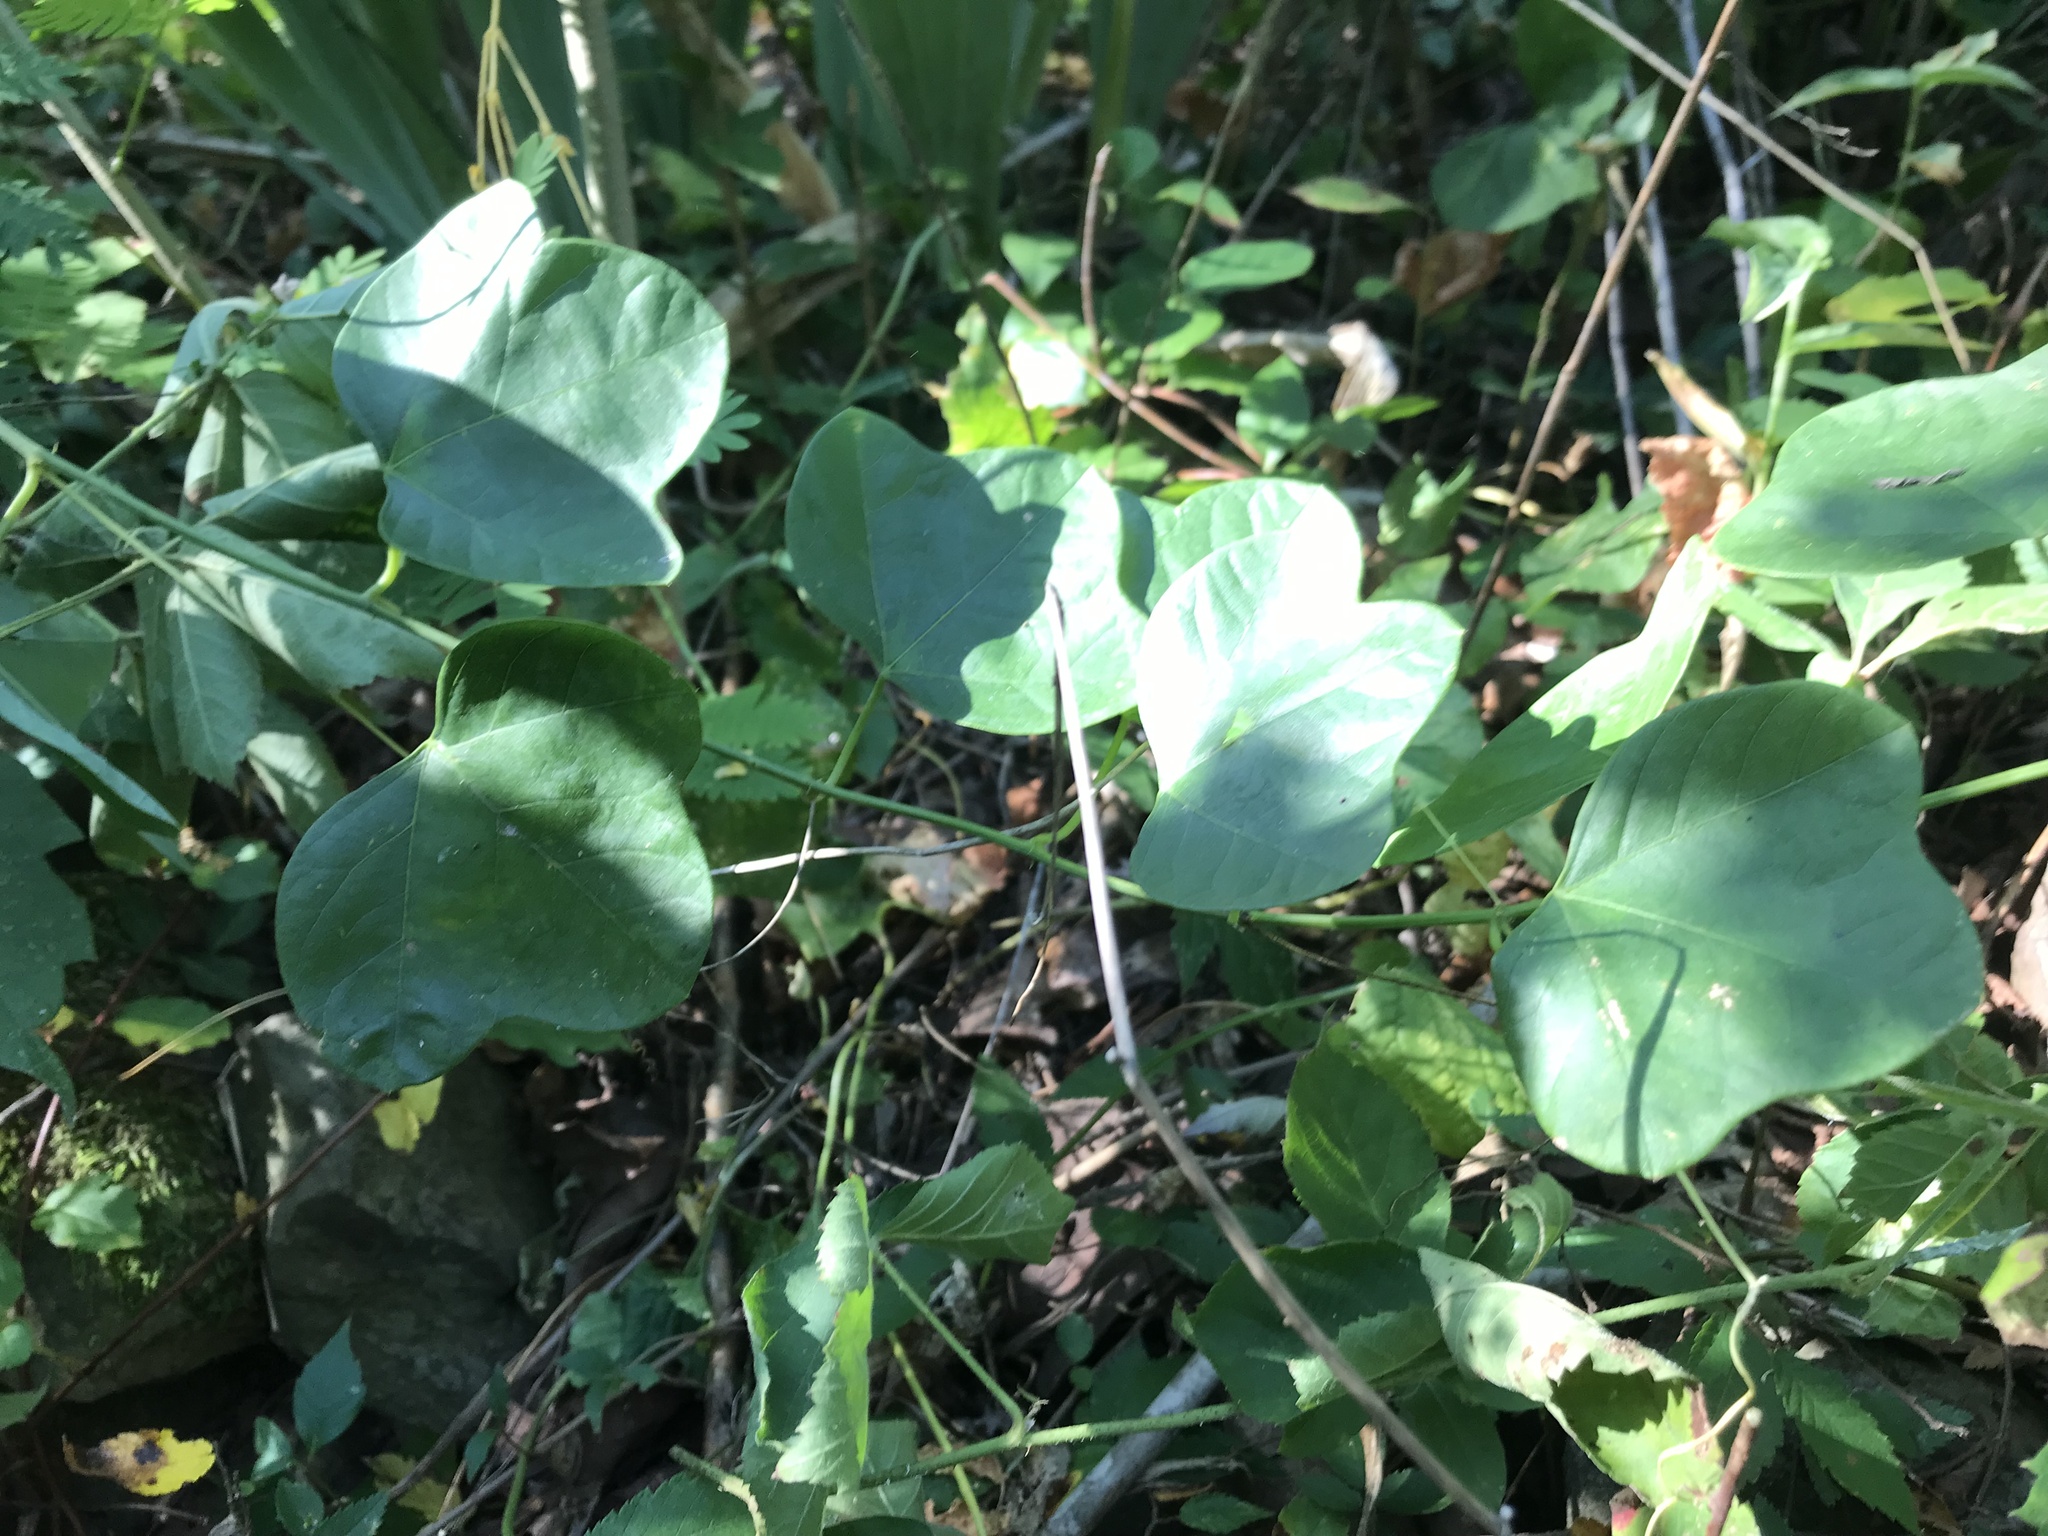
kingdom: Plantae
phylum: Tracheophyta
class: Magnoliopsida
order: Malpighiales
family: Passifloraceae
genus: Passiflora
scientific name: Passiflora lutea
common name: Yellow passionflower
